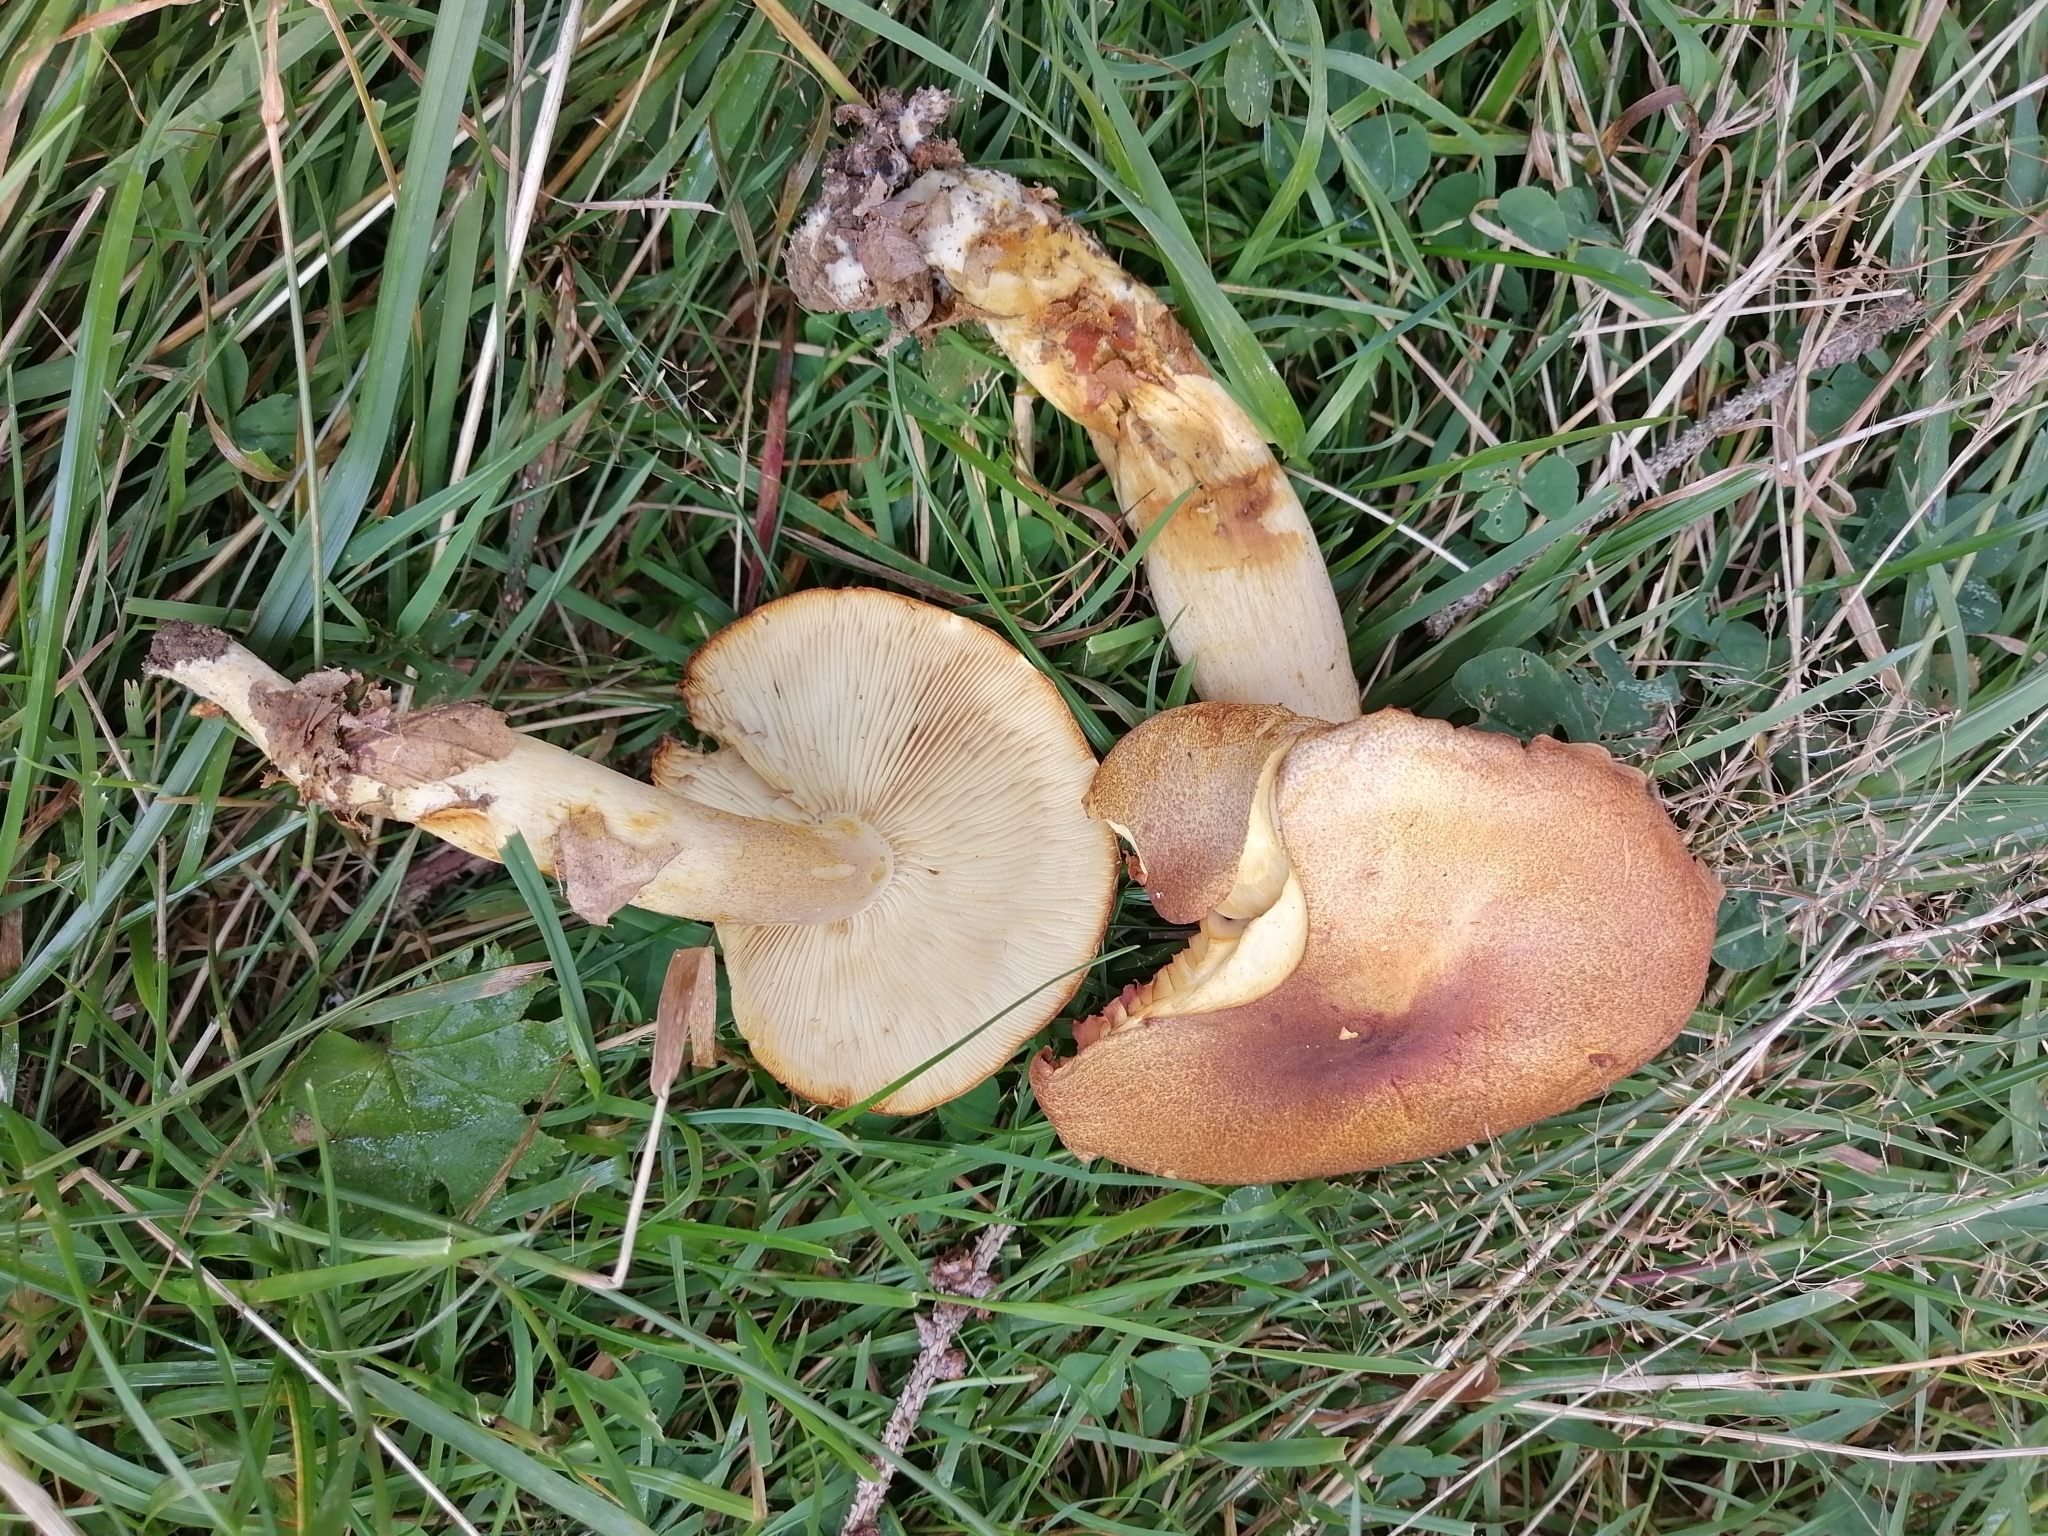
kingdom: Fungi
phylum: Basidiomycota
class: Agaricomycetes
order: Agaricales
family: Tricholomataceae
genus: Tricholomopsis
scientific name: Tricholomopsis rutilans
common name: Plums and custard
